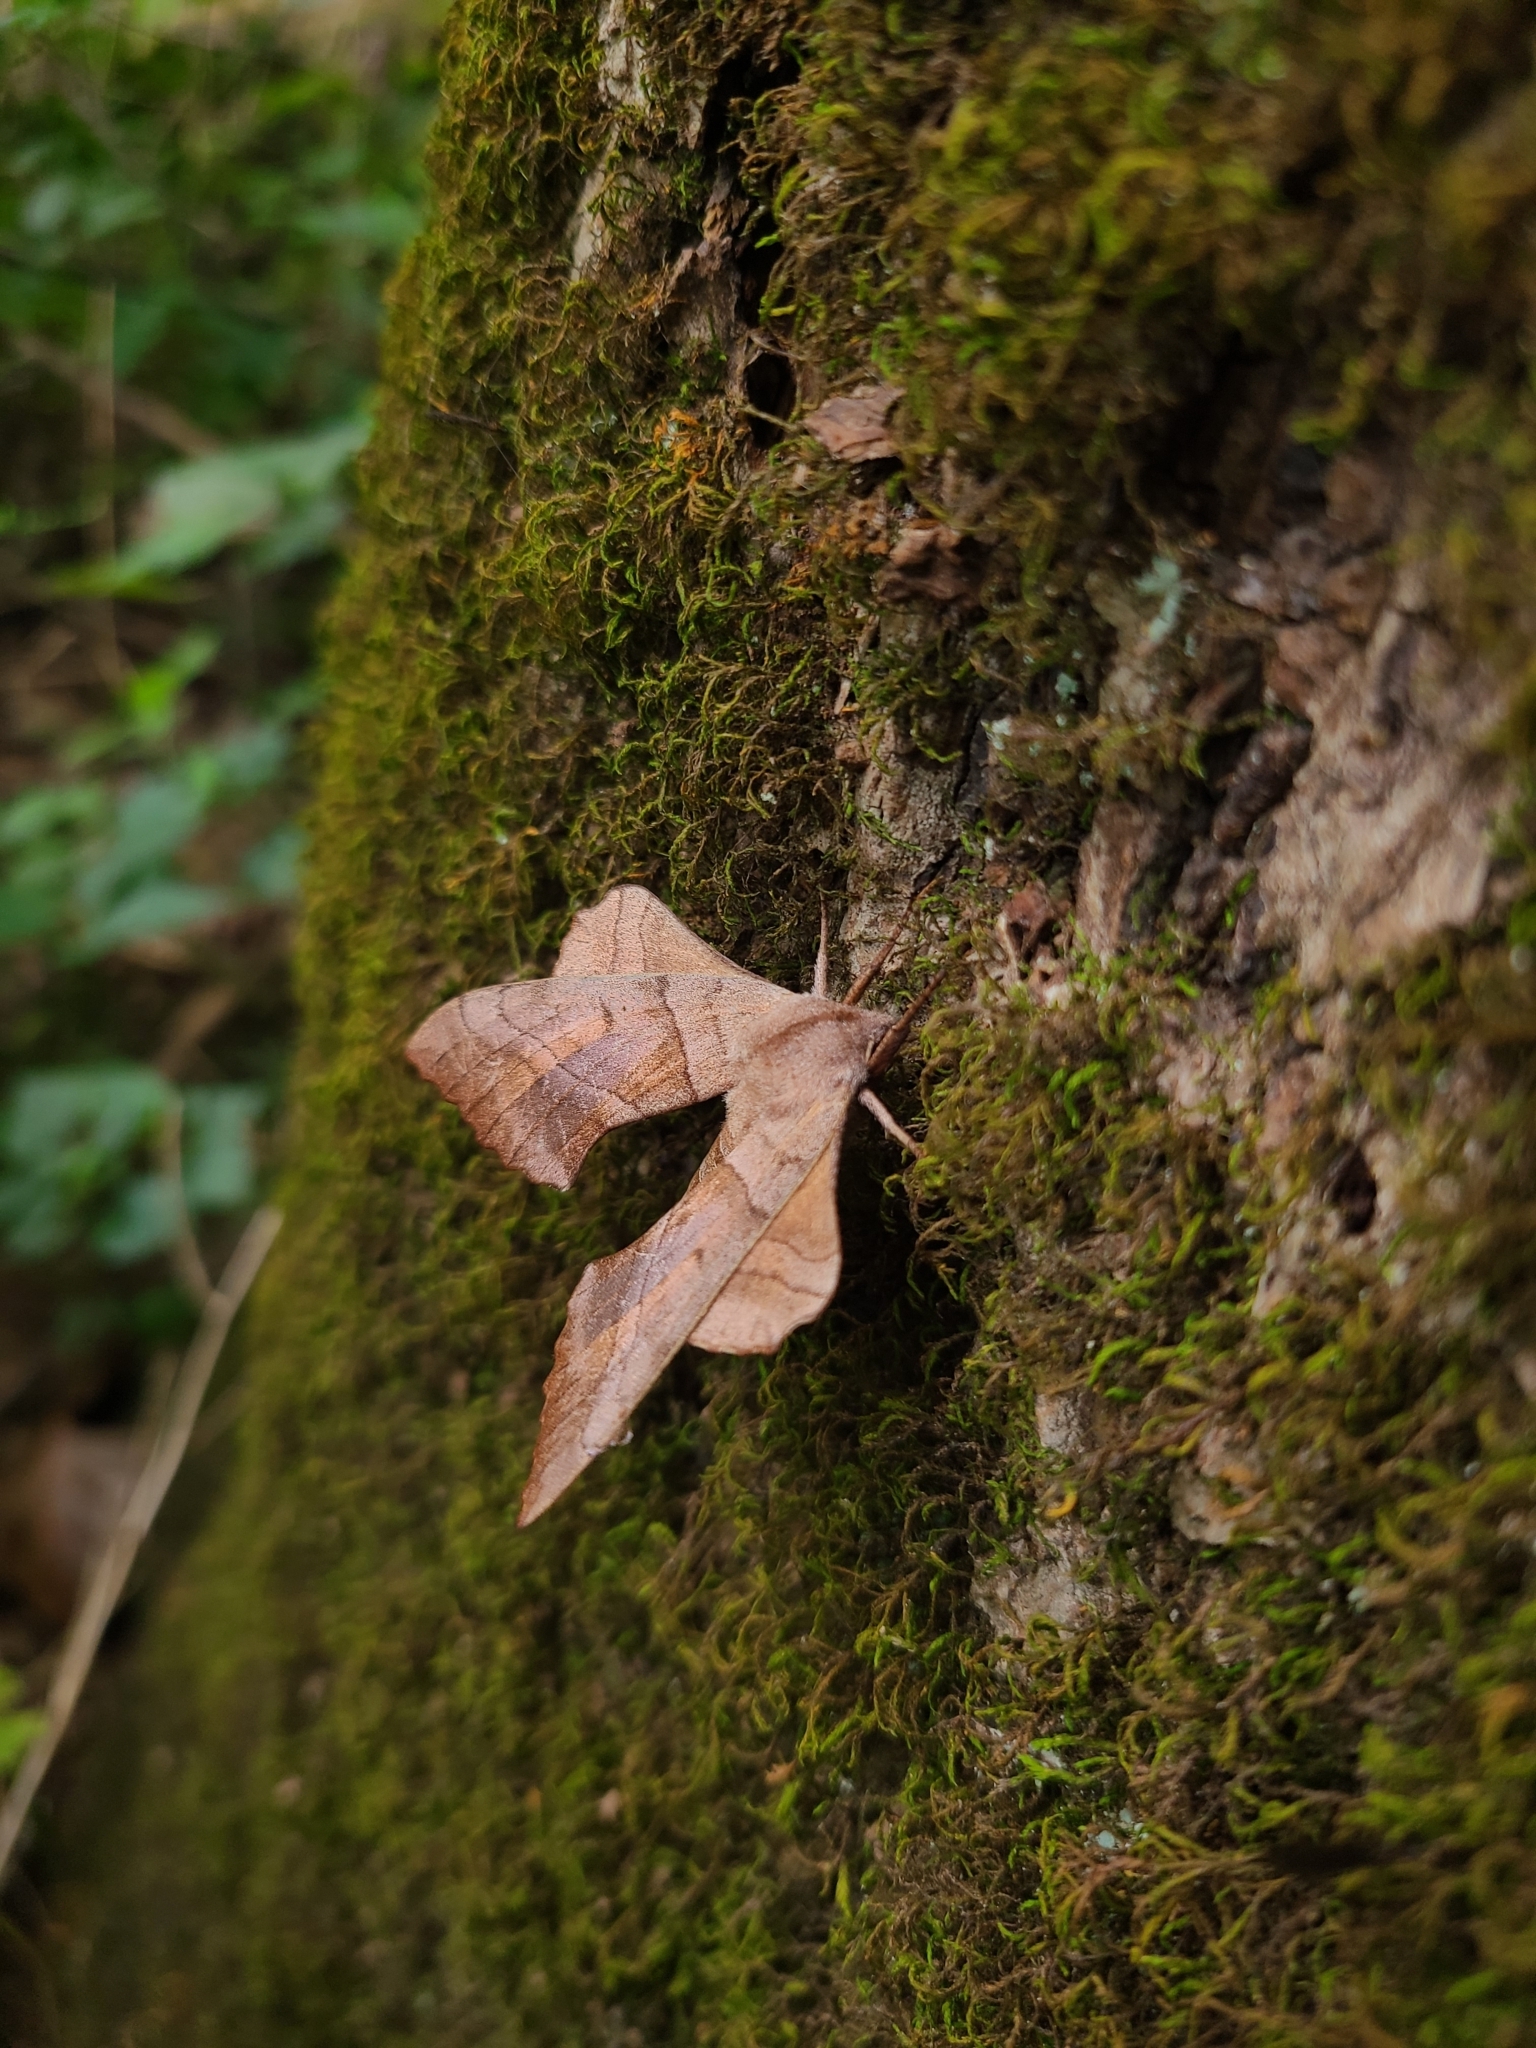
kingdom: Animalia
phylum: Arthropoda
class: Insecta
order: Lepidoptera
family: Sphingidae
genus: Amorpha
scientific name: Amorpha juglandis
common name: Walnut sphinx
